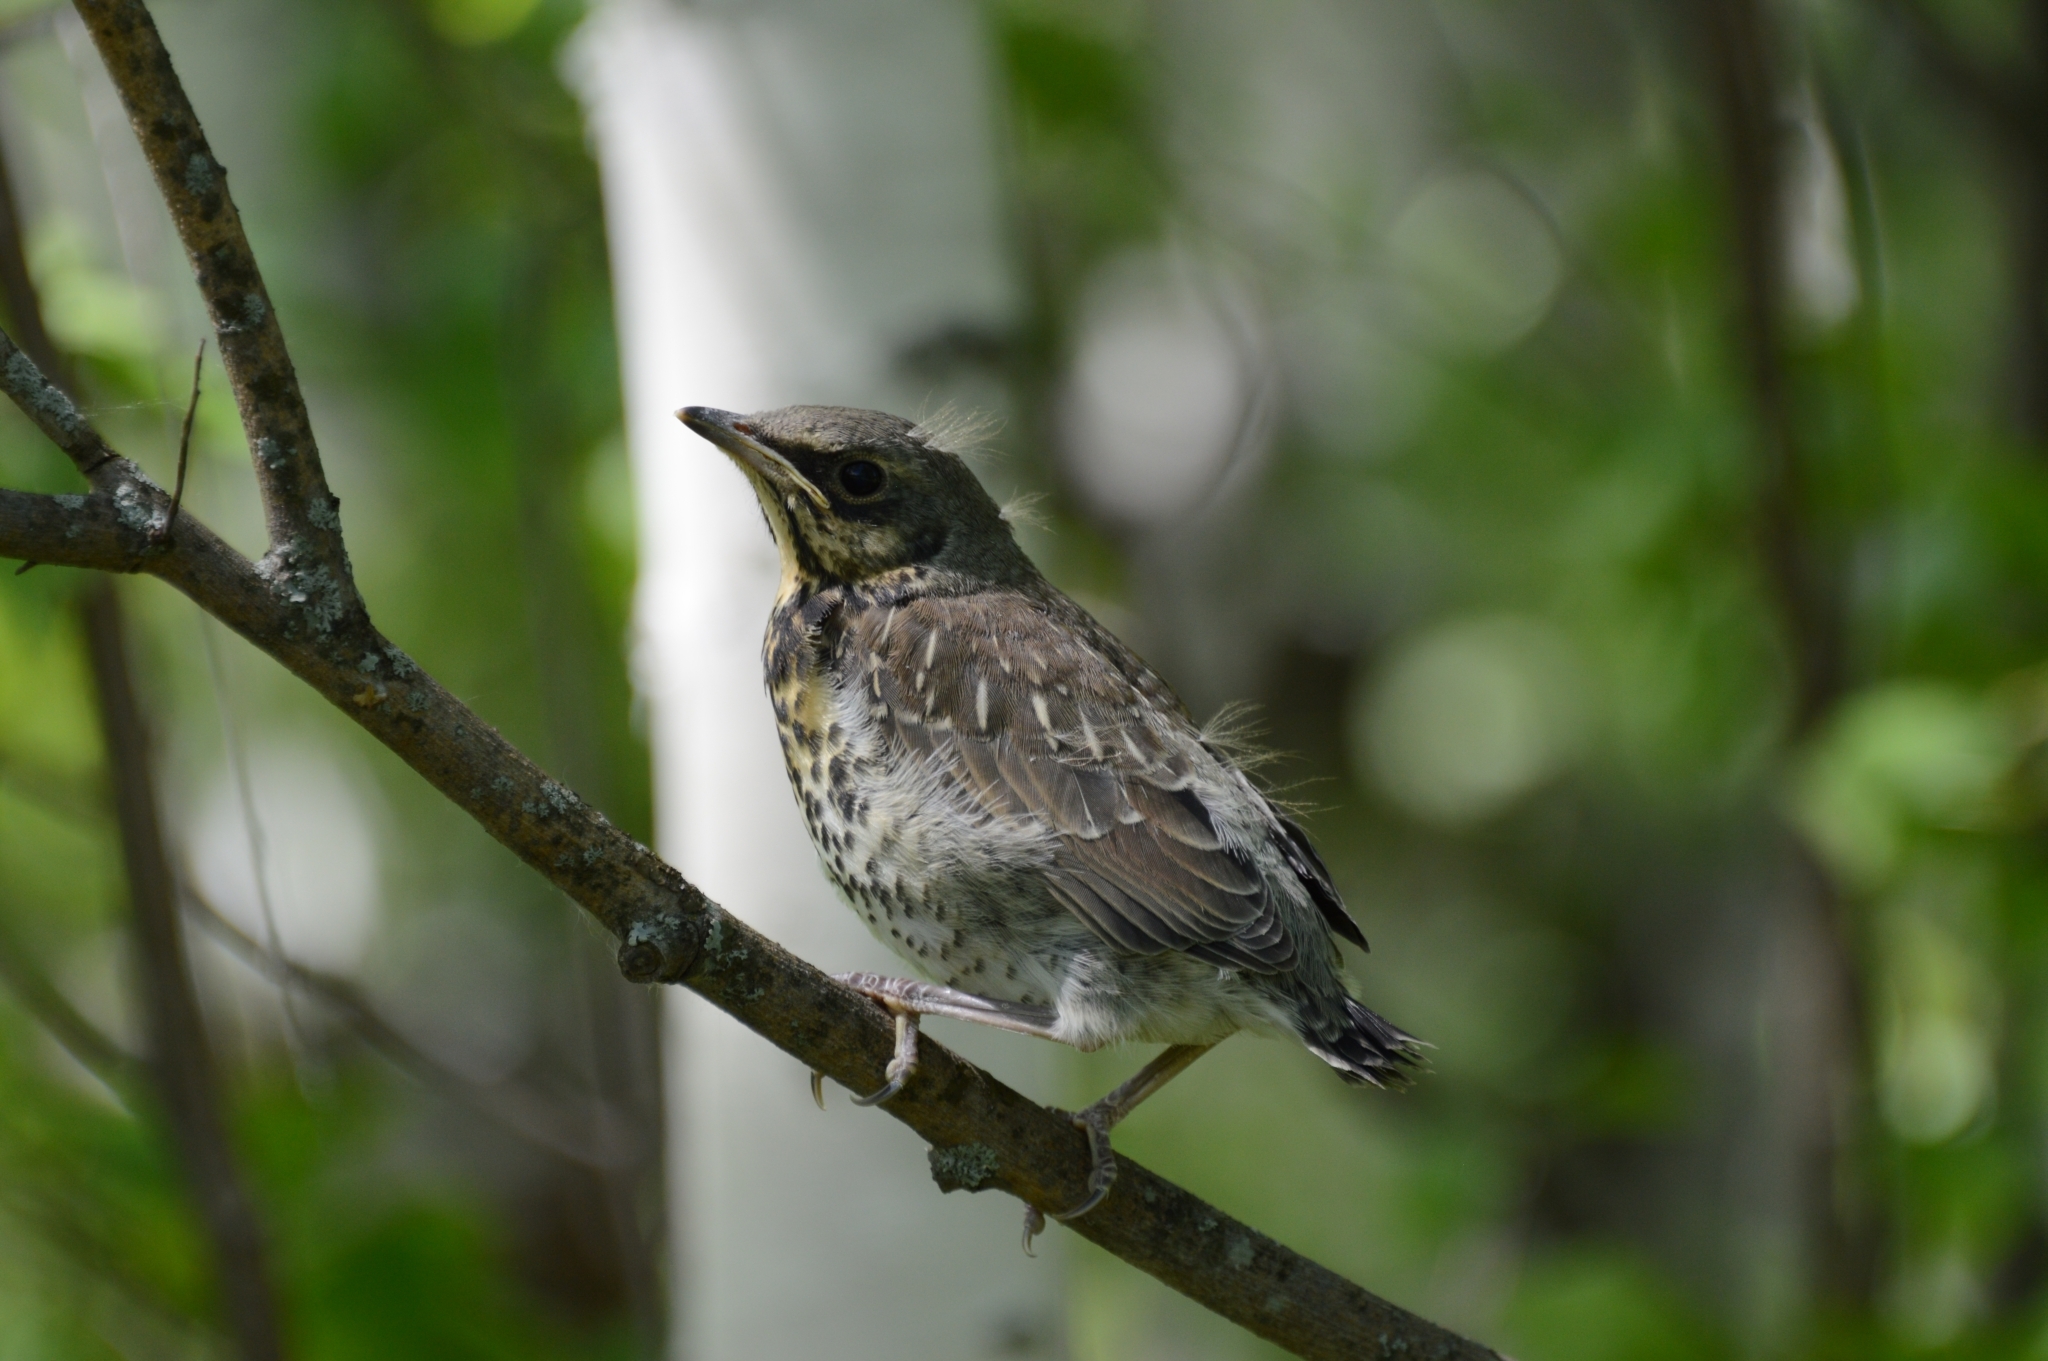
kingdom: Animalia
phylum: Chordata
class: Aves
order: Passeriformes
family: Turdidae
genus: Turdus
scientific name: Turdus pilaris
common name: Fieldfare
